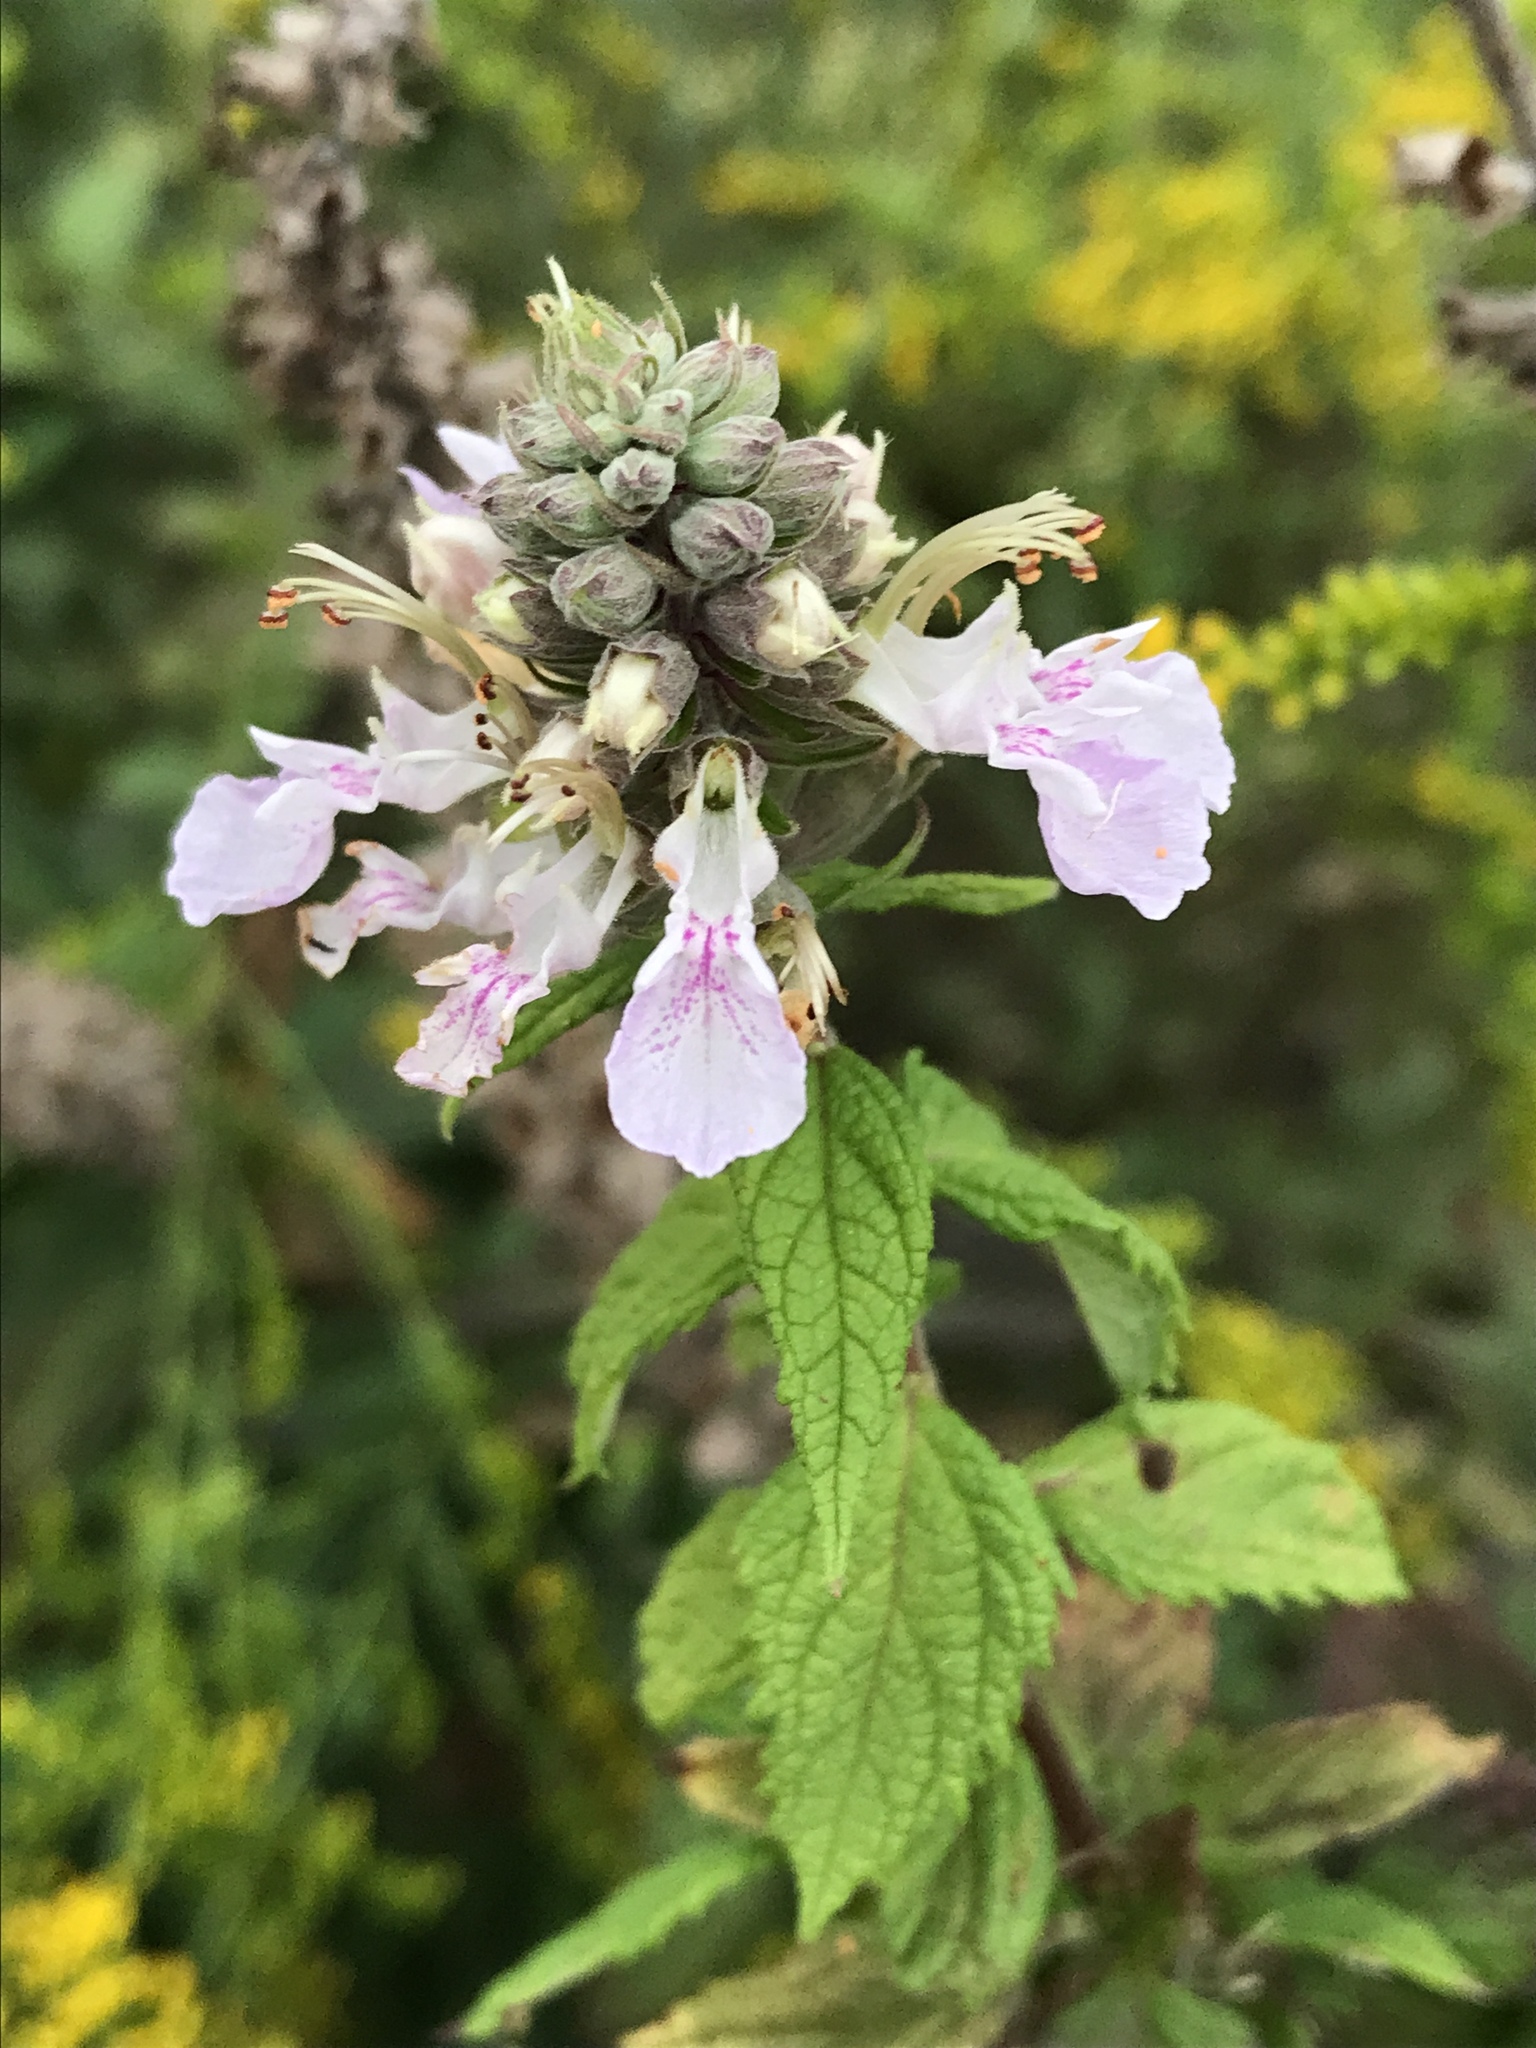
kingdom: Plantae
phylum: Tracheophyta
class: Magnoliopsida
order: Lamiales
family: Lamiaceae
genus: Teucrium
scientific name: Teucrium canadense
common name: American germander
